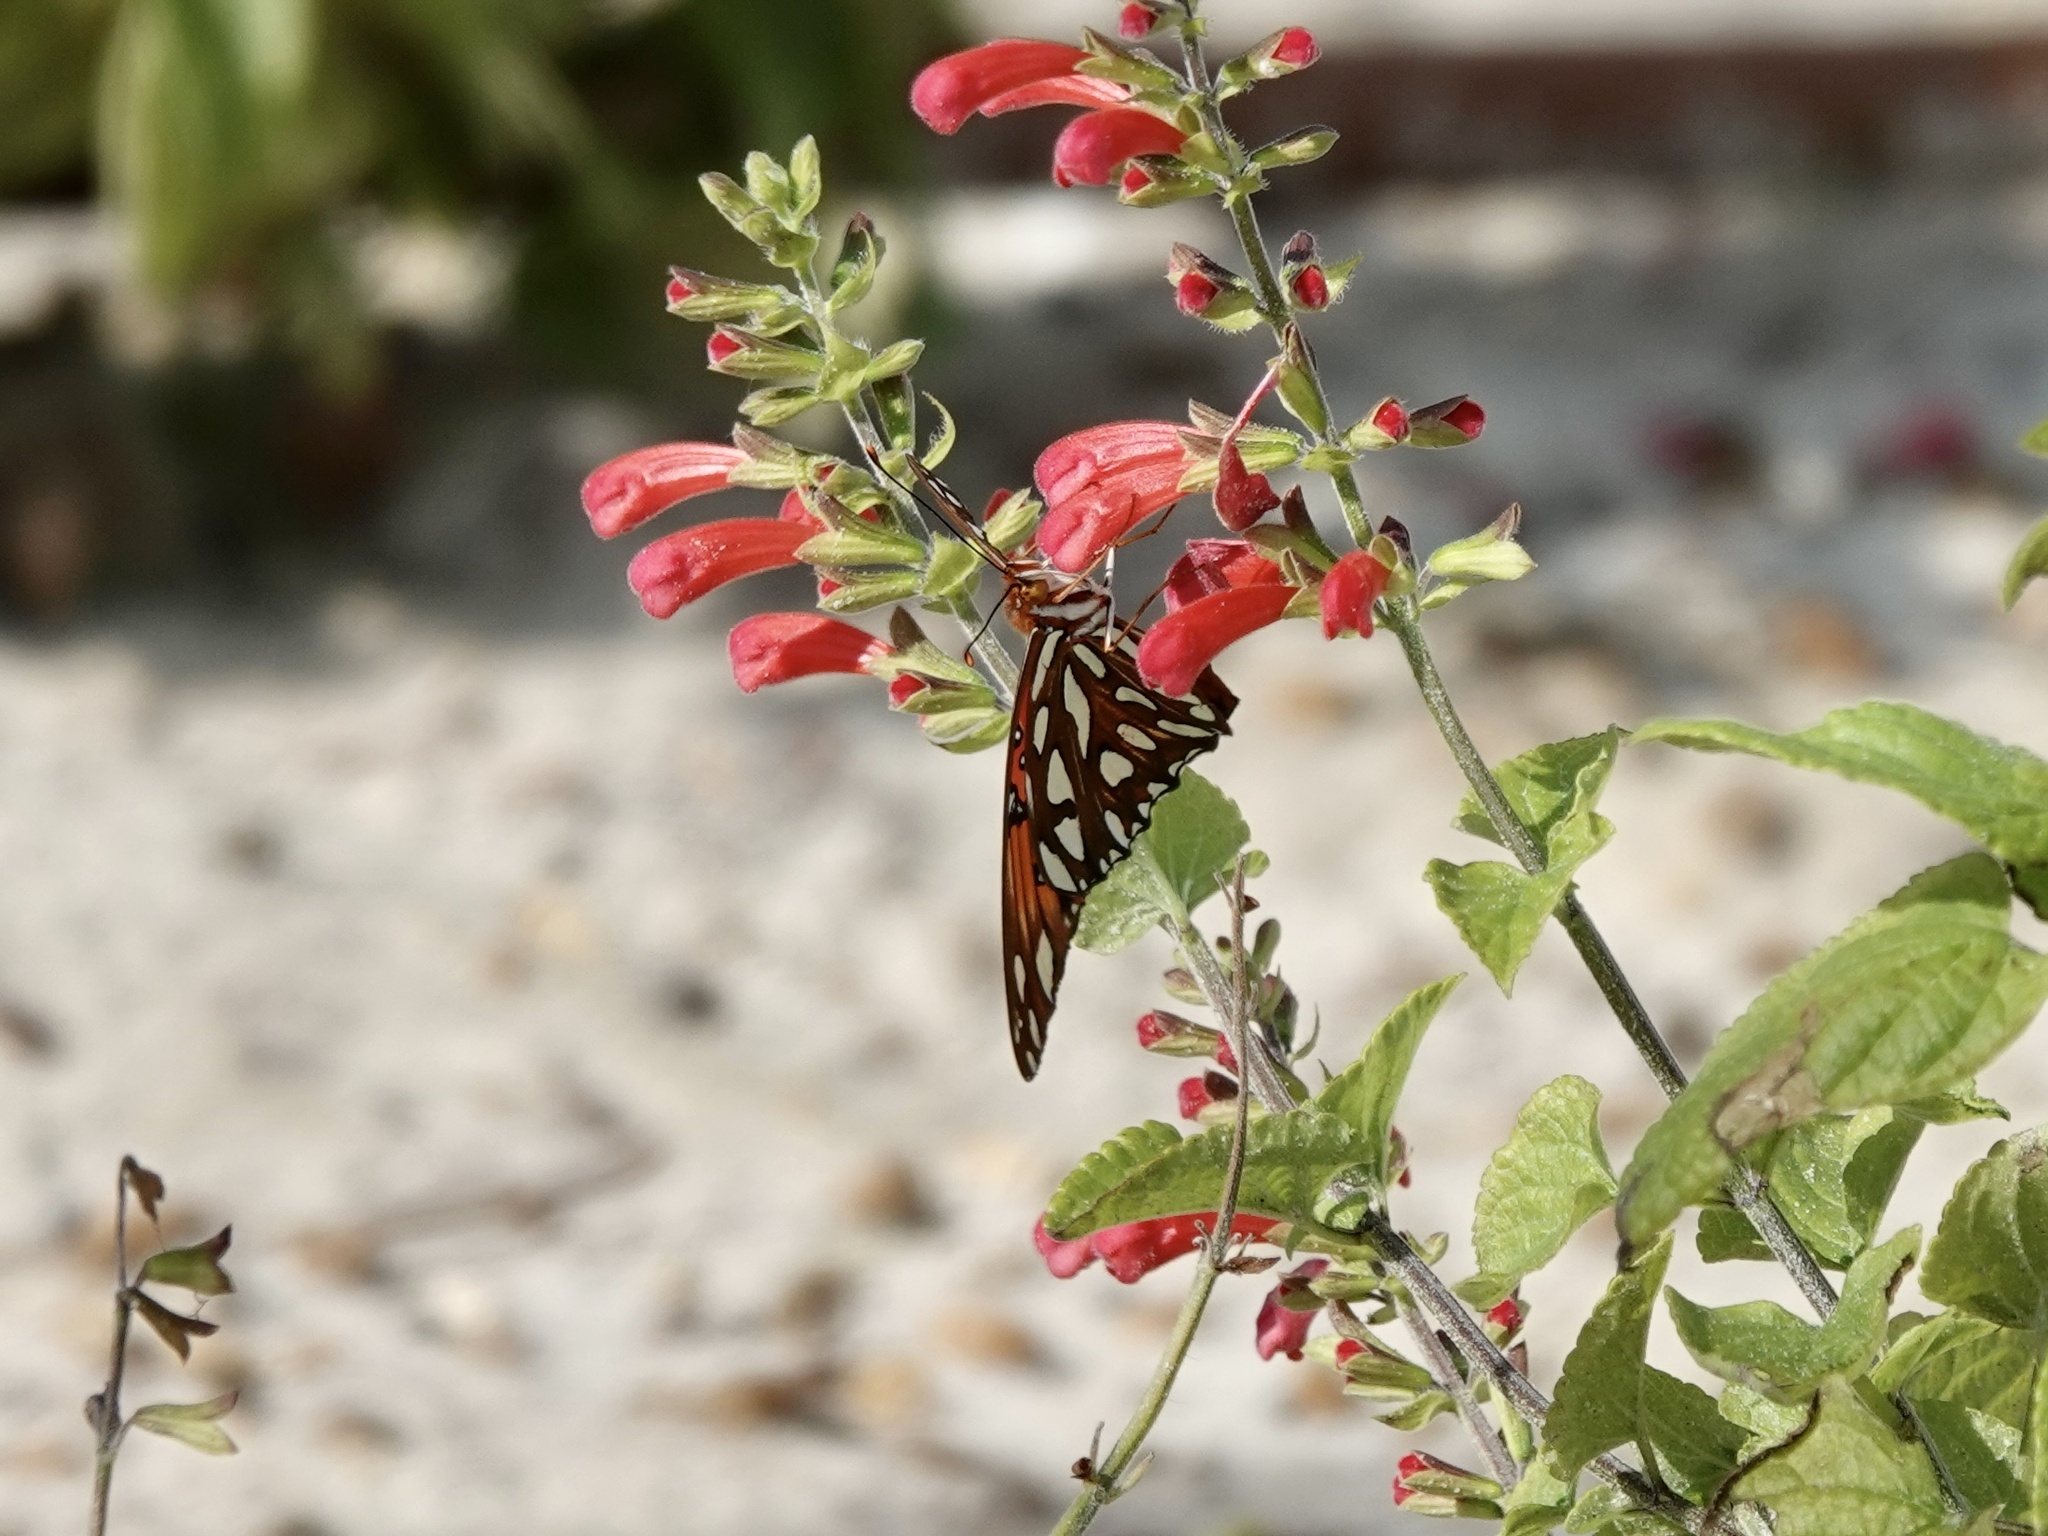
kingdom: Animalia
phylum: Arthropoda
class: Insecta
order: Lepidoptera
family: Nymphalidae
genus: Dione
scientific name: Dione vanillae
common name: Gulf fritillary
